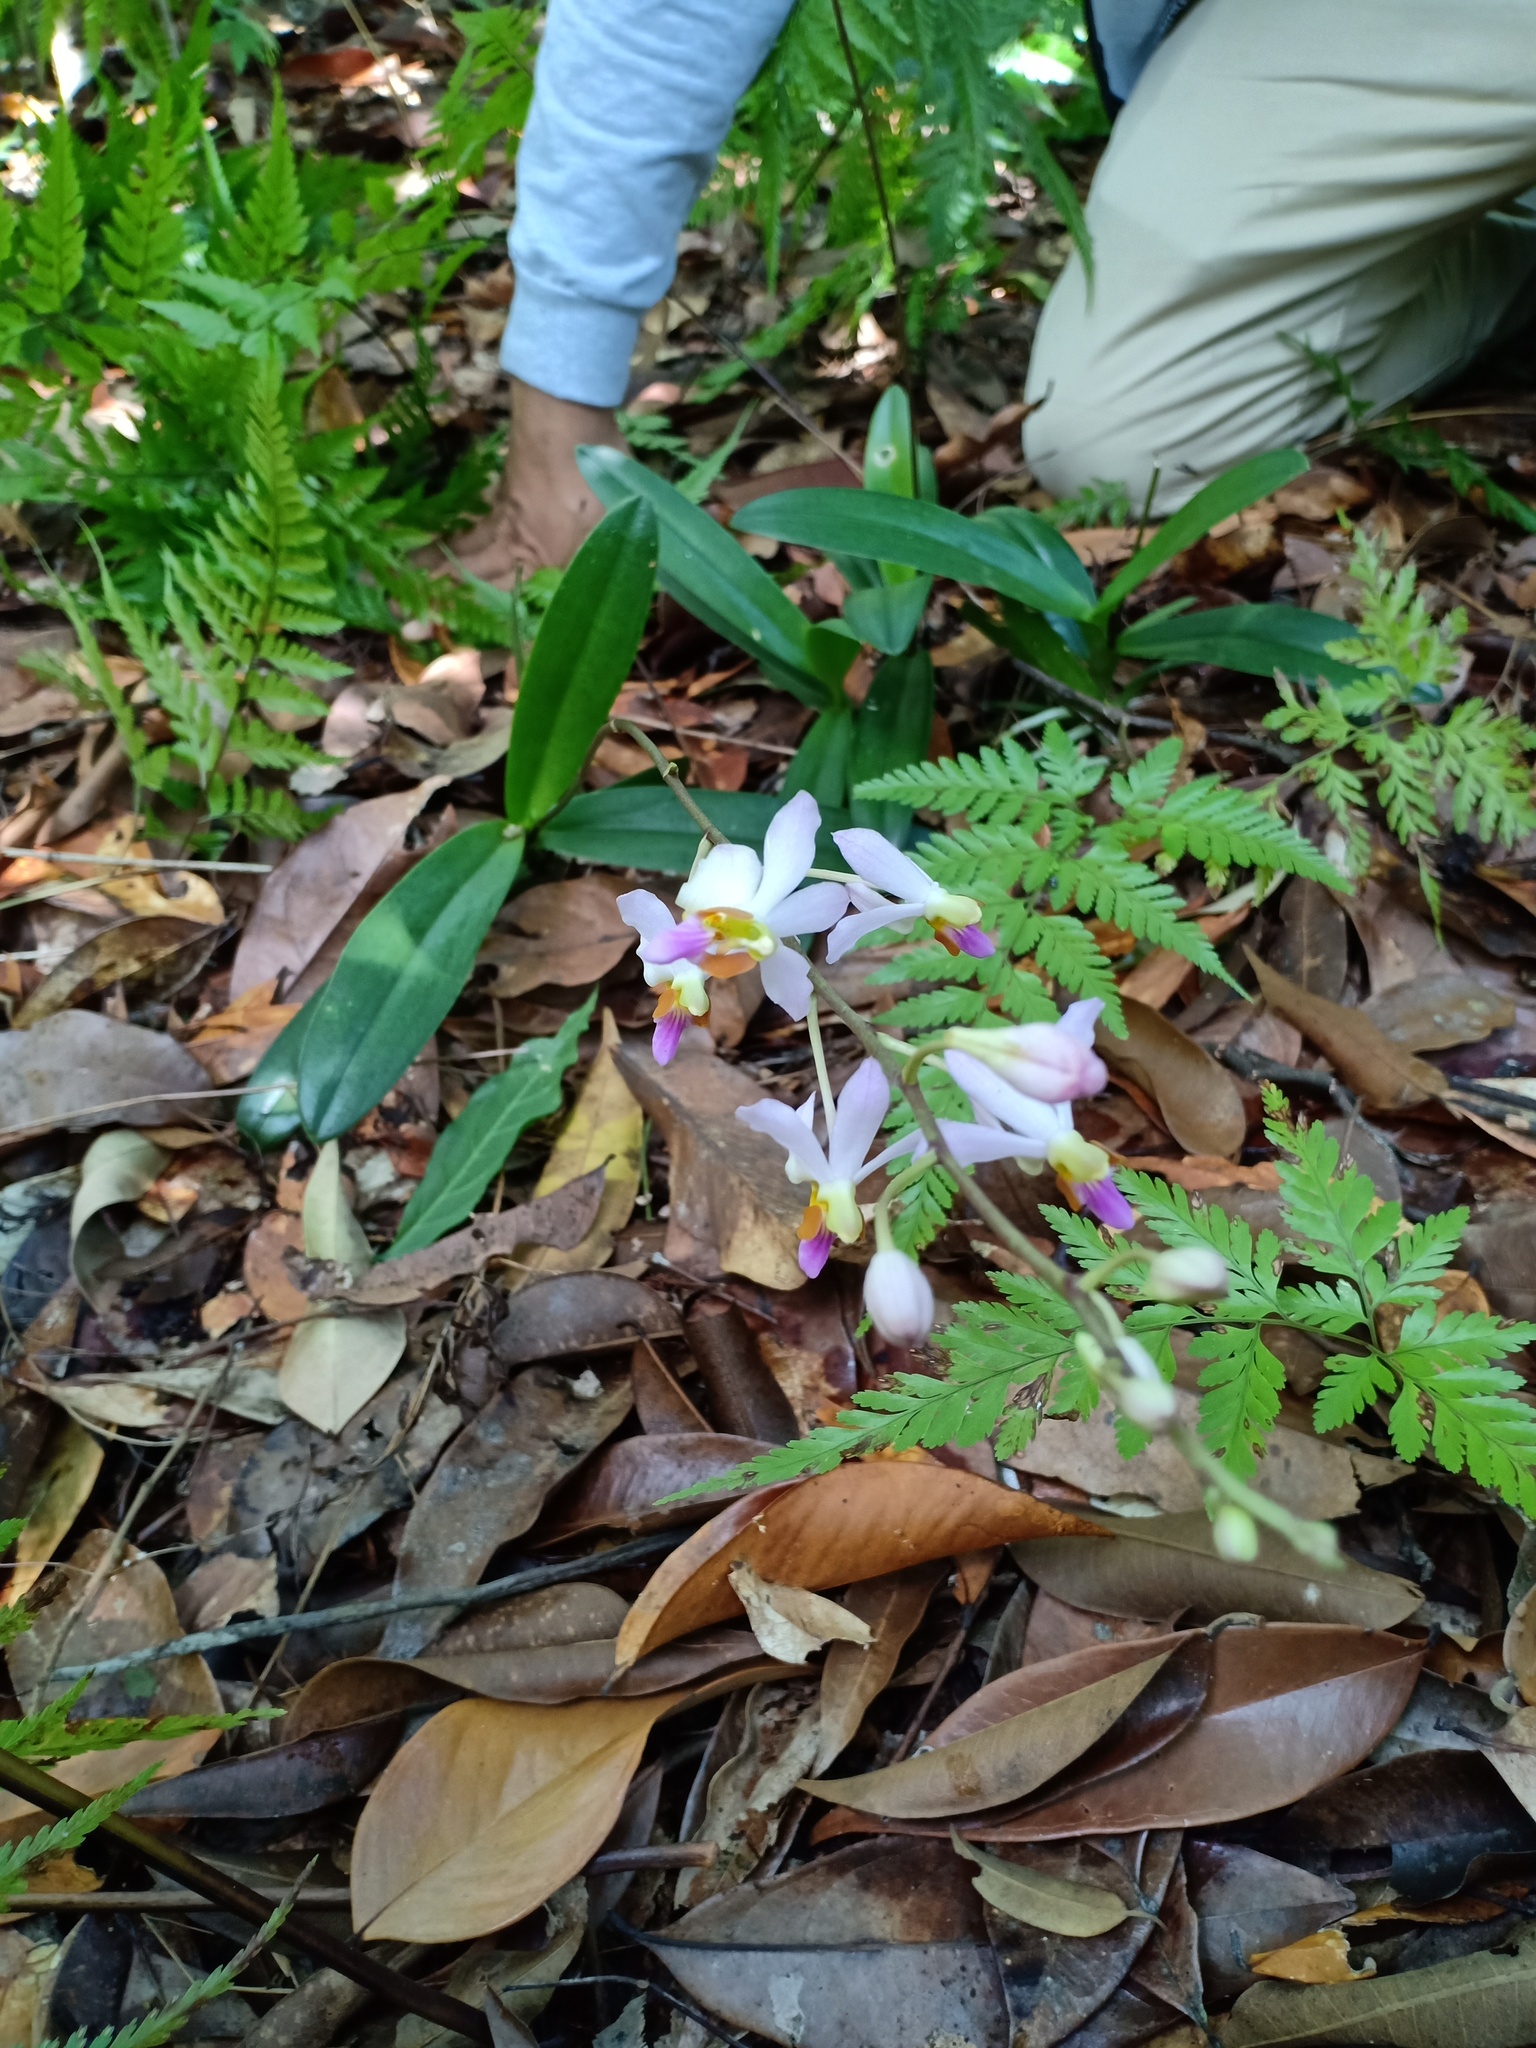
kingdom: Plantae
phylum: Tracheophyta
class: Liliopsida
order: Asparagales
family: Orchidaceae
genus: Phalaenopsis
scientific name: Phalaenopsis pulcherrima
